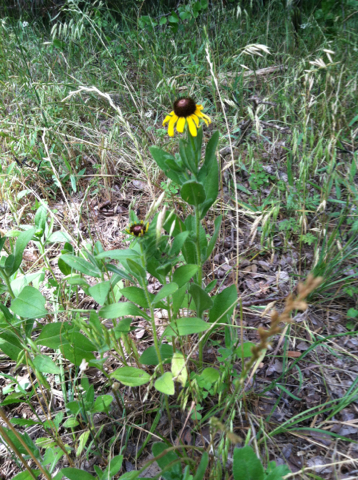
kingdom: Plantae
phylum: Tracheophyta
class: Magnoliopsida
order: Asterales
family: Asteraceae
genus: Rudbeckia
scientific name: Rudbeckia hirta
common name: Black-eyed-susan
